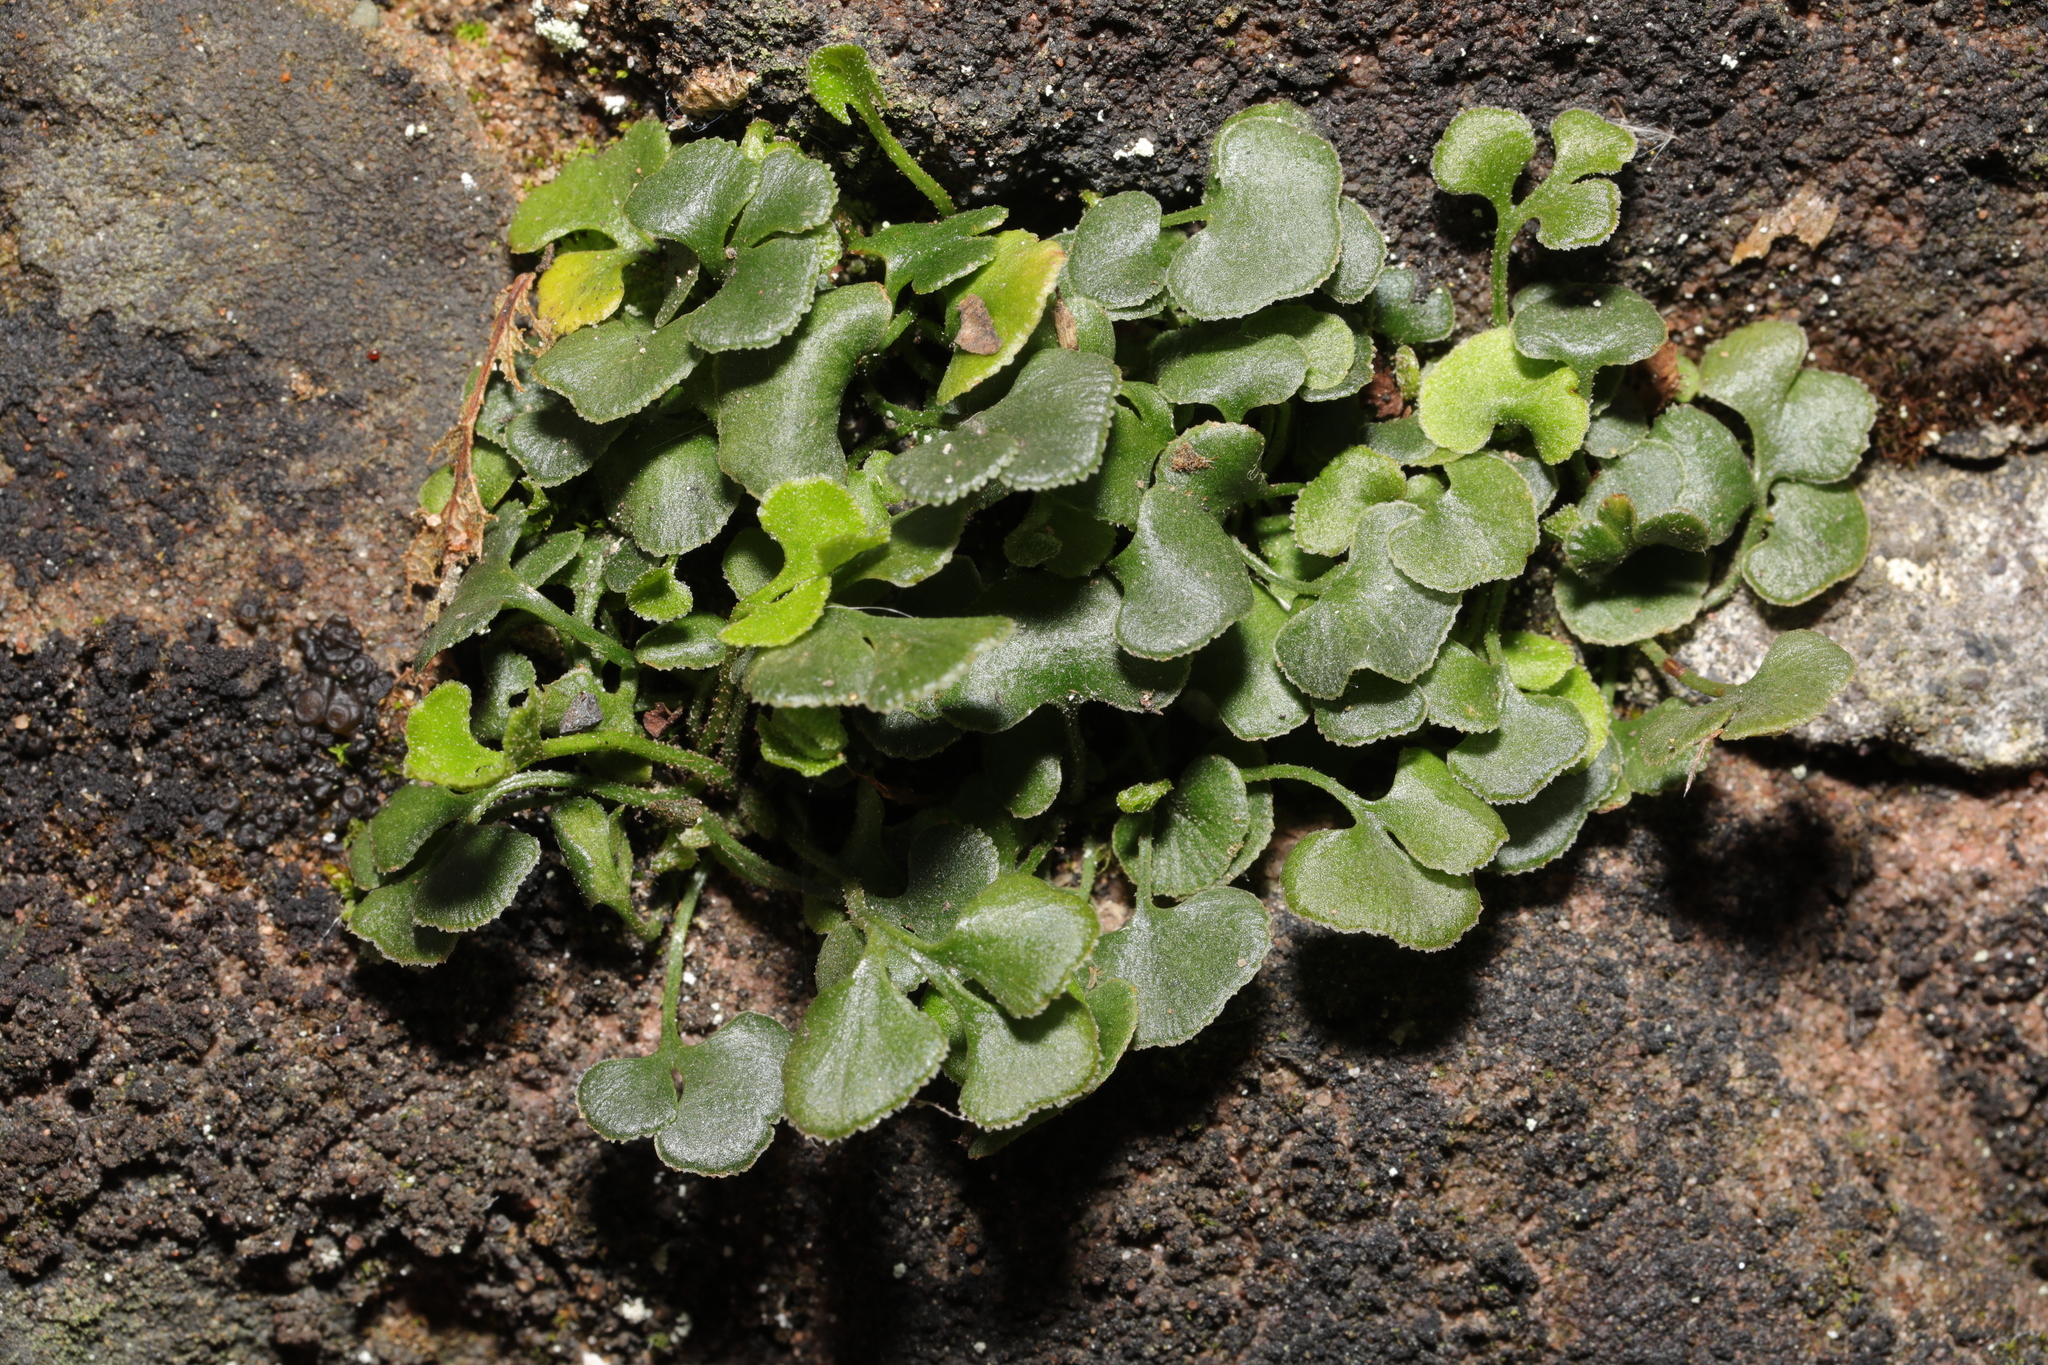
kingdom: Plantae
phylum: Tracheophyta
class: Polypodiopsida
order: Polypodiales
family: Aspleniaceae
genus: Asplenium
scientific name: Asplenium ruta-muraria
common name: Wall-rue
